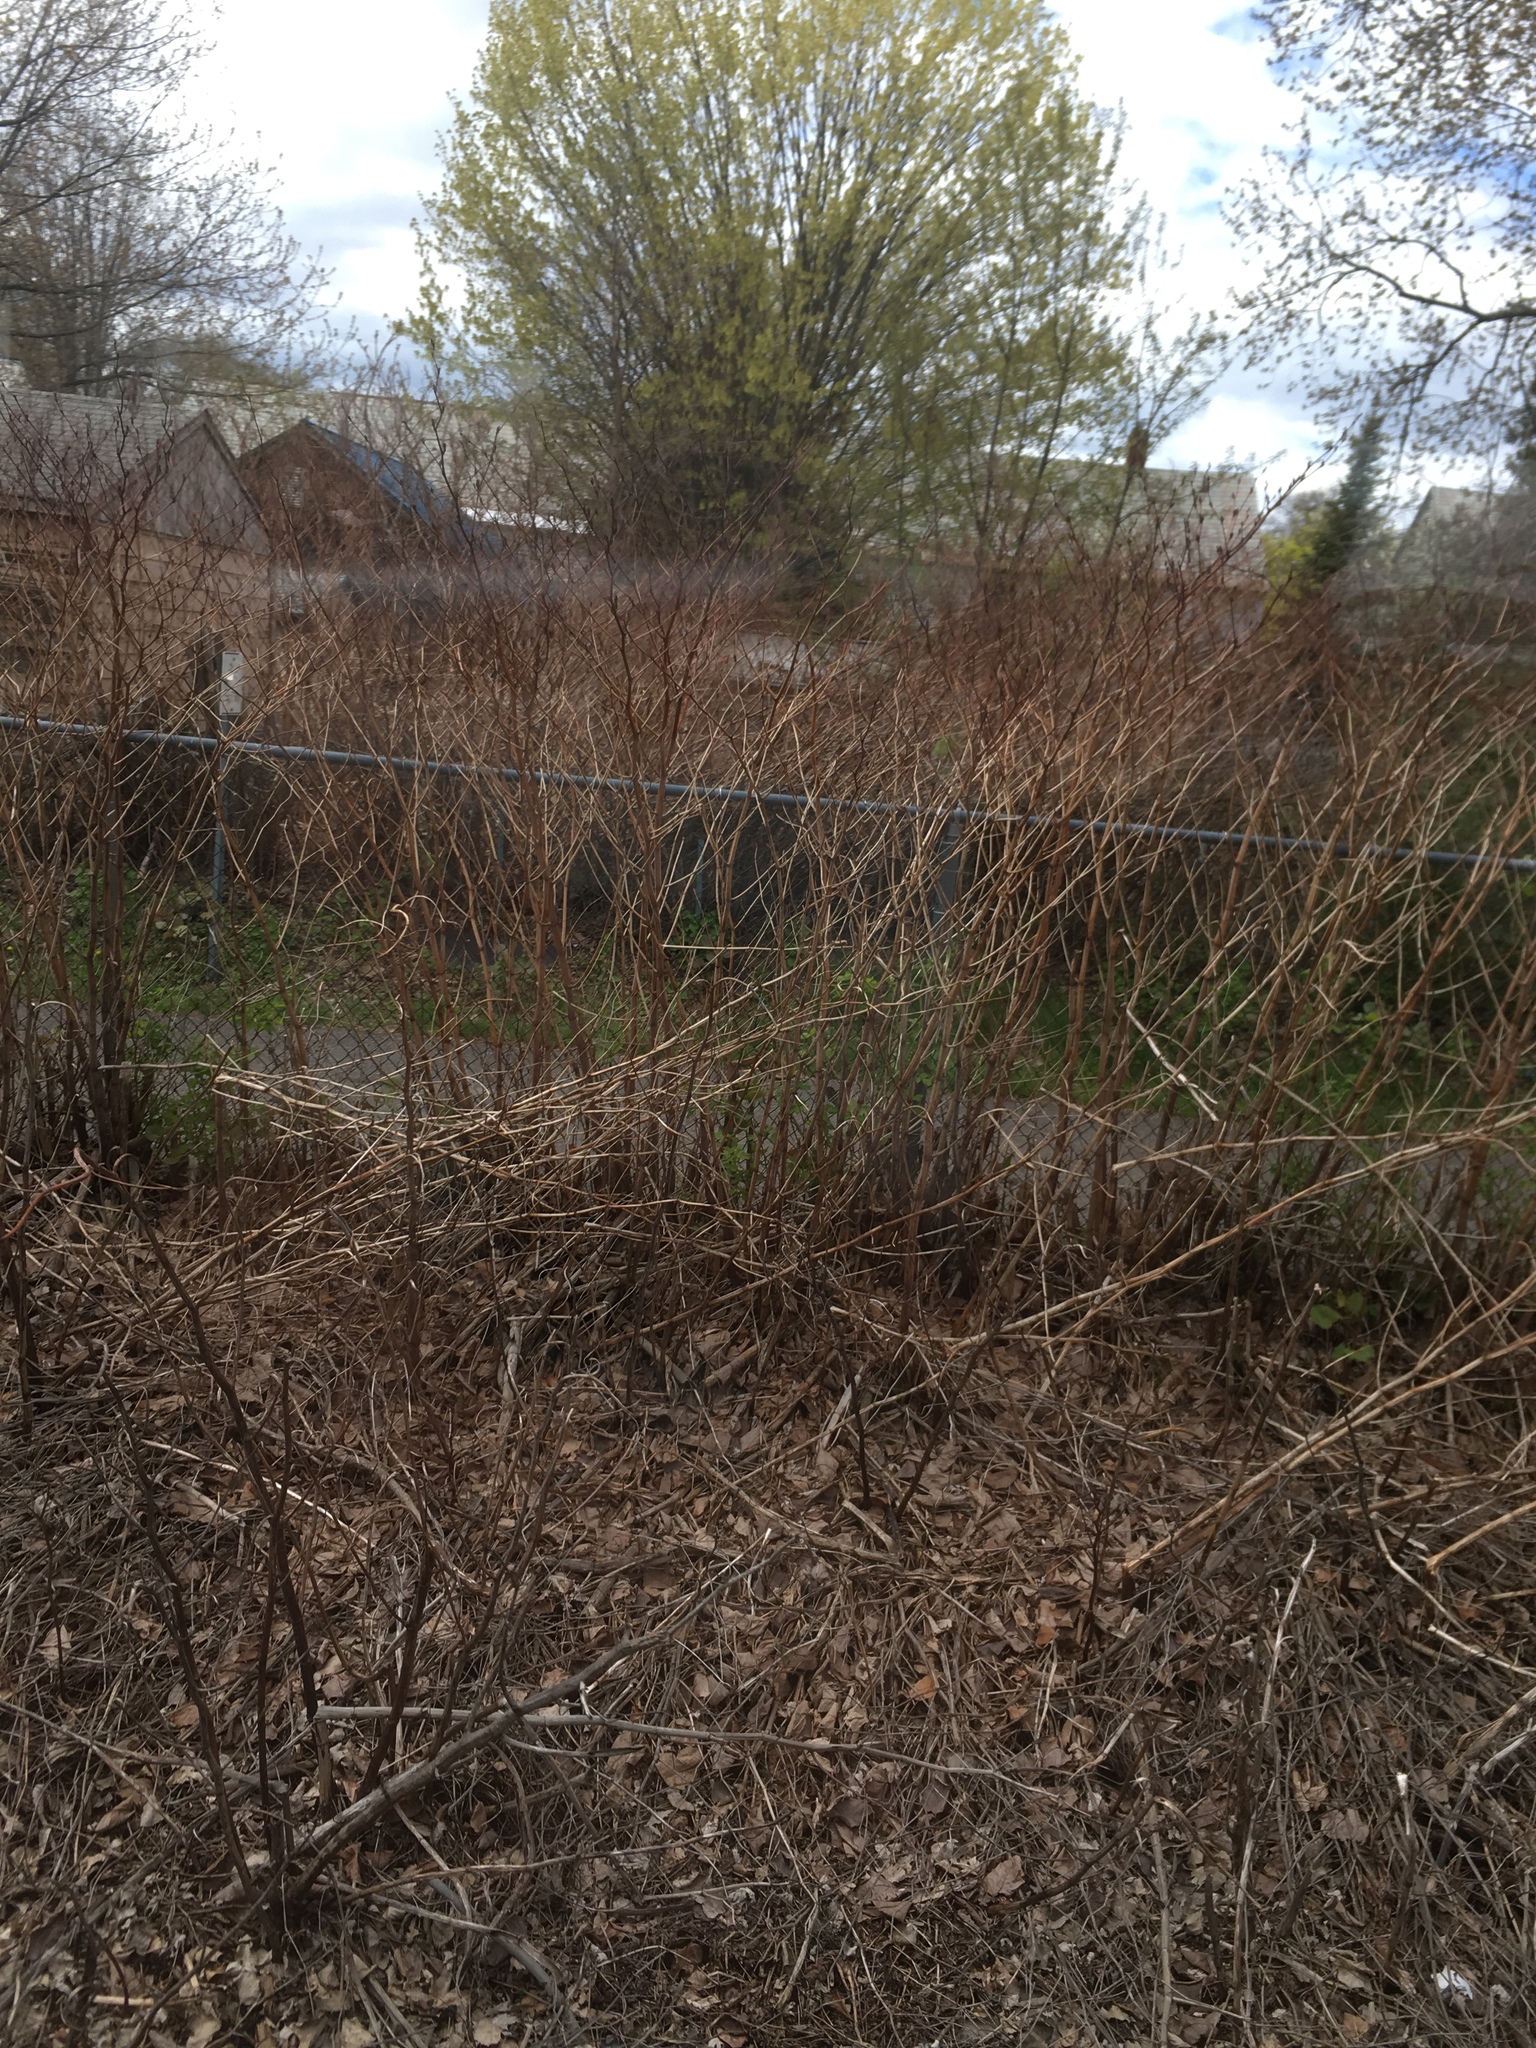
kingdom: Plantae
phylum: Tracheophyta
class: Magnoliopsida
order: Caryophyllales
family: Polygonaceae
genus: Reynoutria
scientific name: Reynoutria japonica
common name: Japanese knotweed
